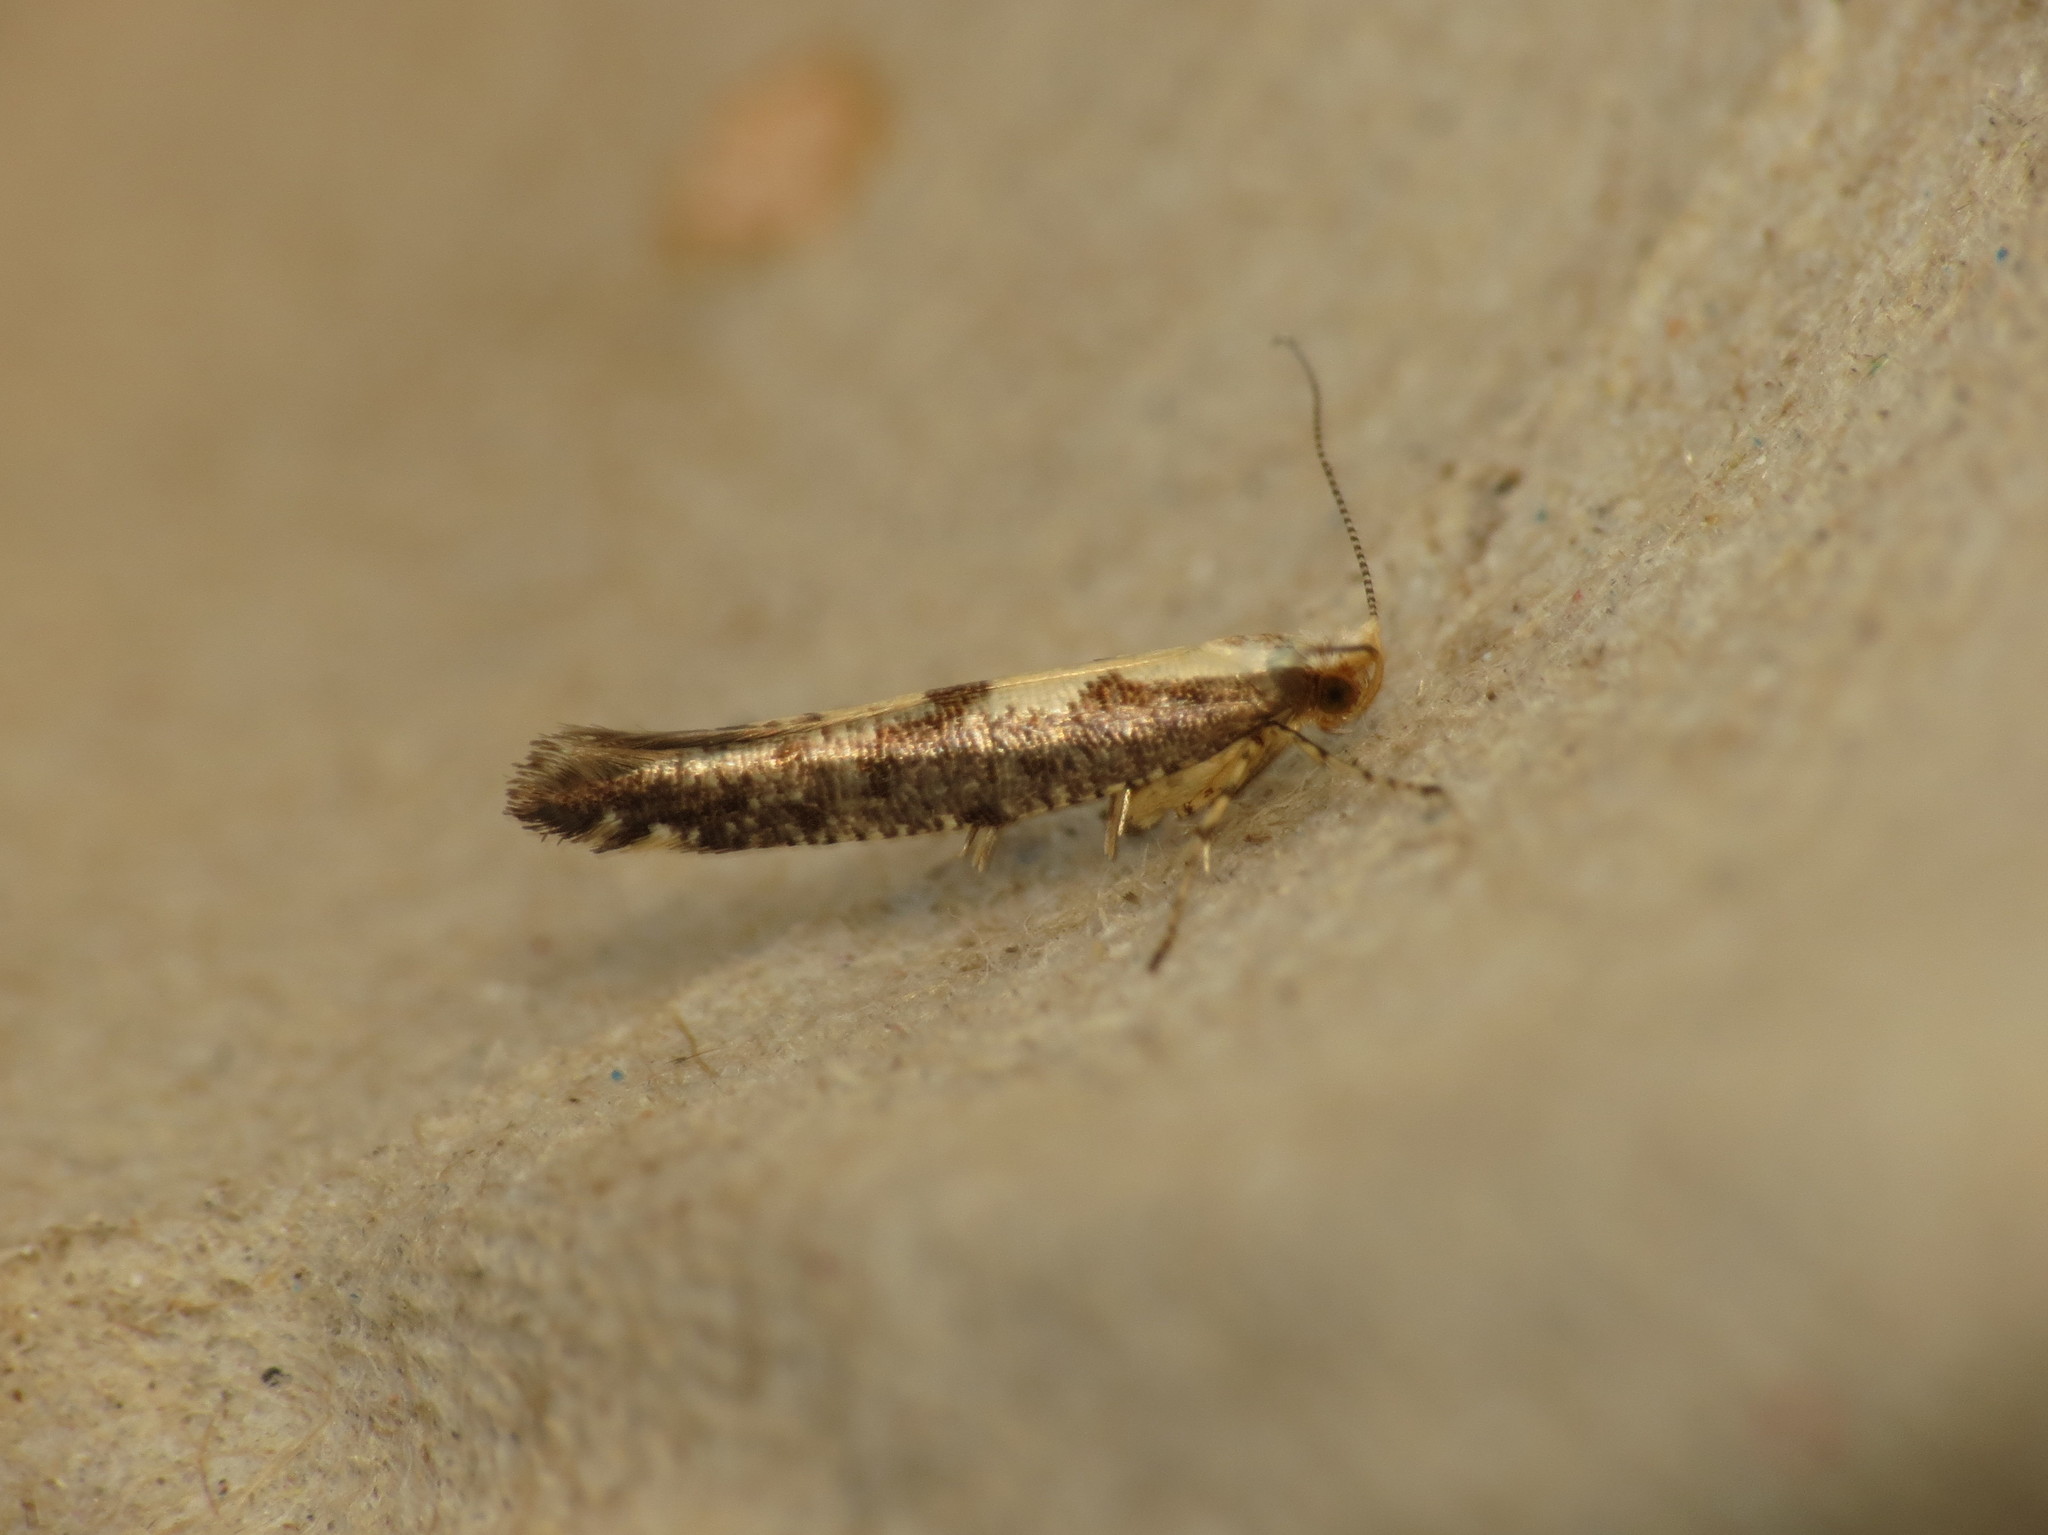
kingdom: Animalia
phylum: Arthropoda
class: Insecta
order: Lepidoptera
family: Argyresthiidae
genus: Argyresthia
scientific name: Argyresthia conjugella
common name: Apple fruit moth
